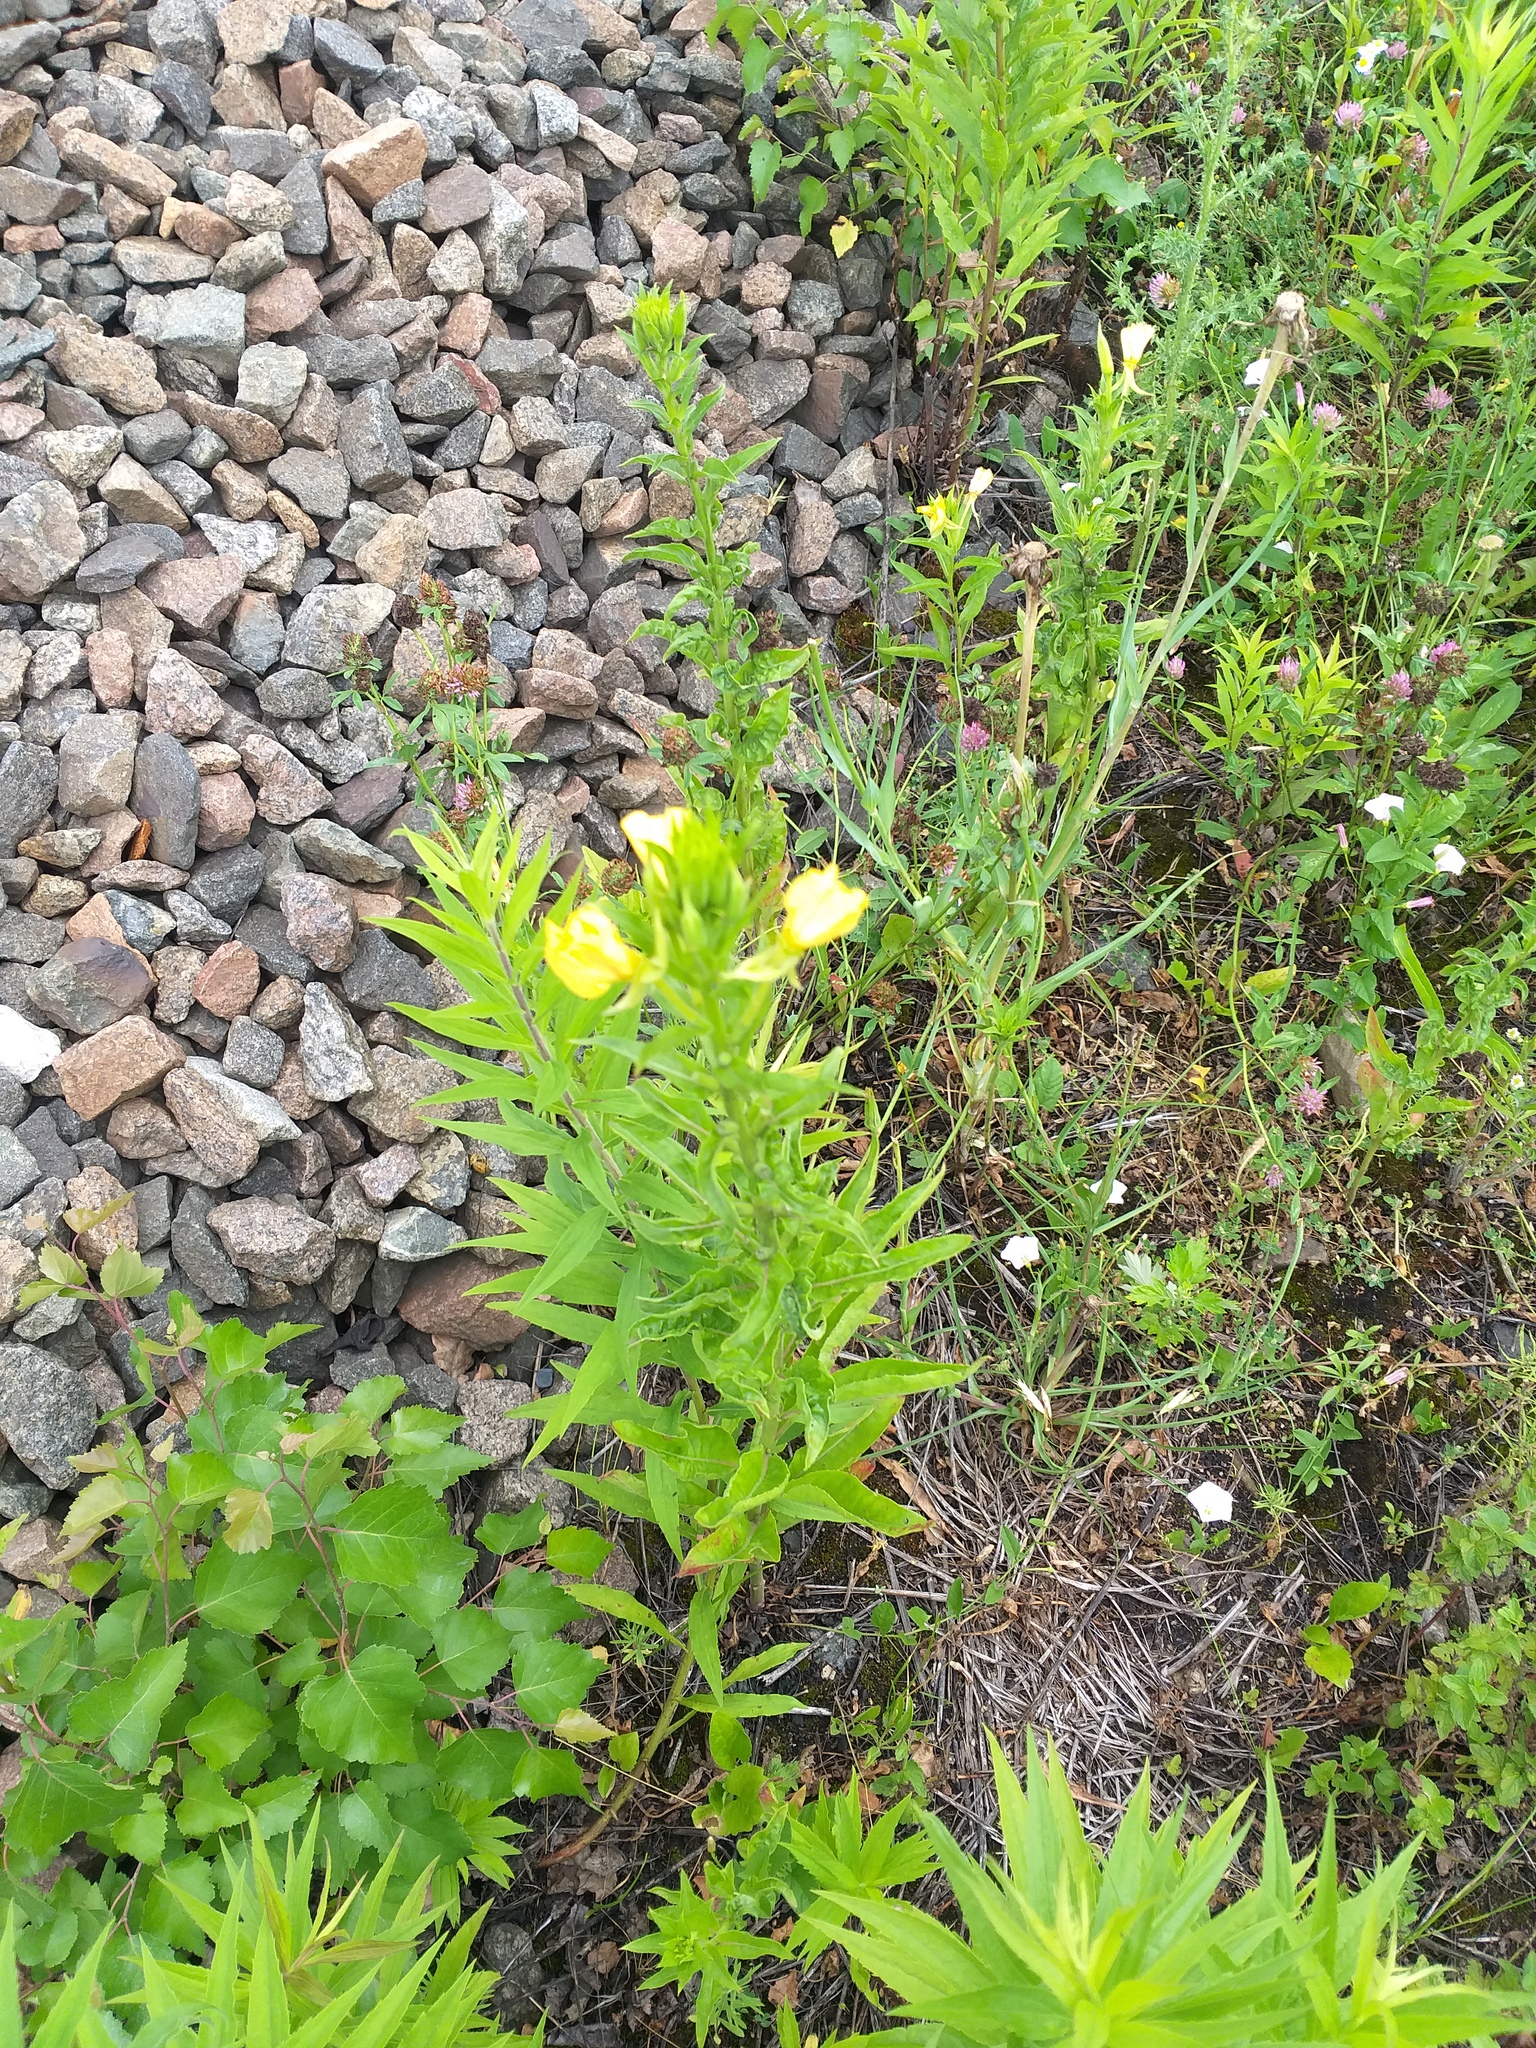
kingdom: Plantae
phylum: Tracheophyta
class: Magnoliopsida
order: Myrtales
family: Onagraceae
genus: Oenothera
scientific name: Oenothera biennis
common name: Common evening-primrose
